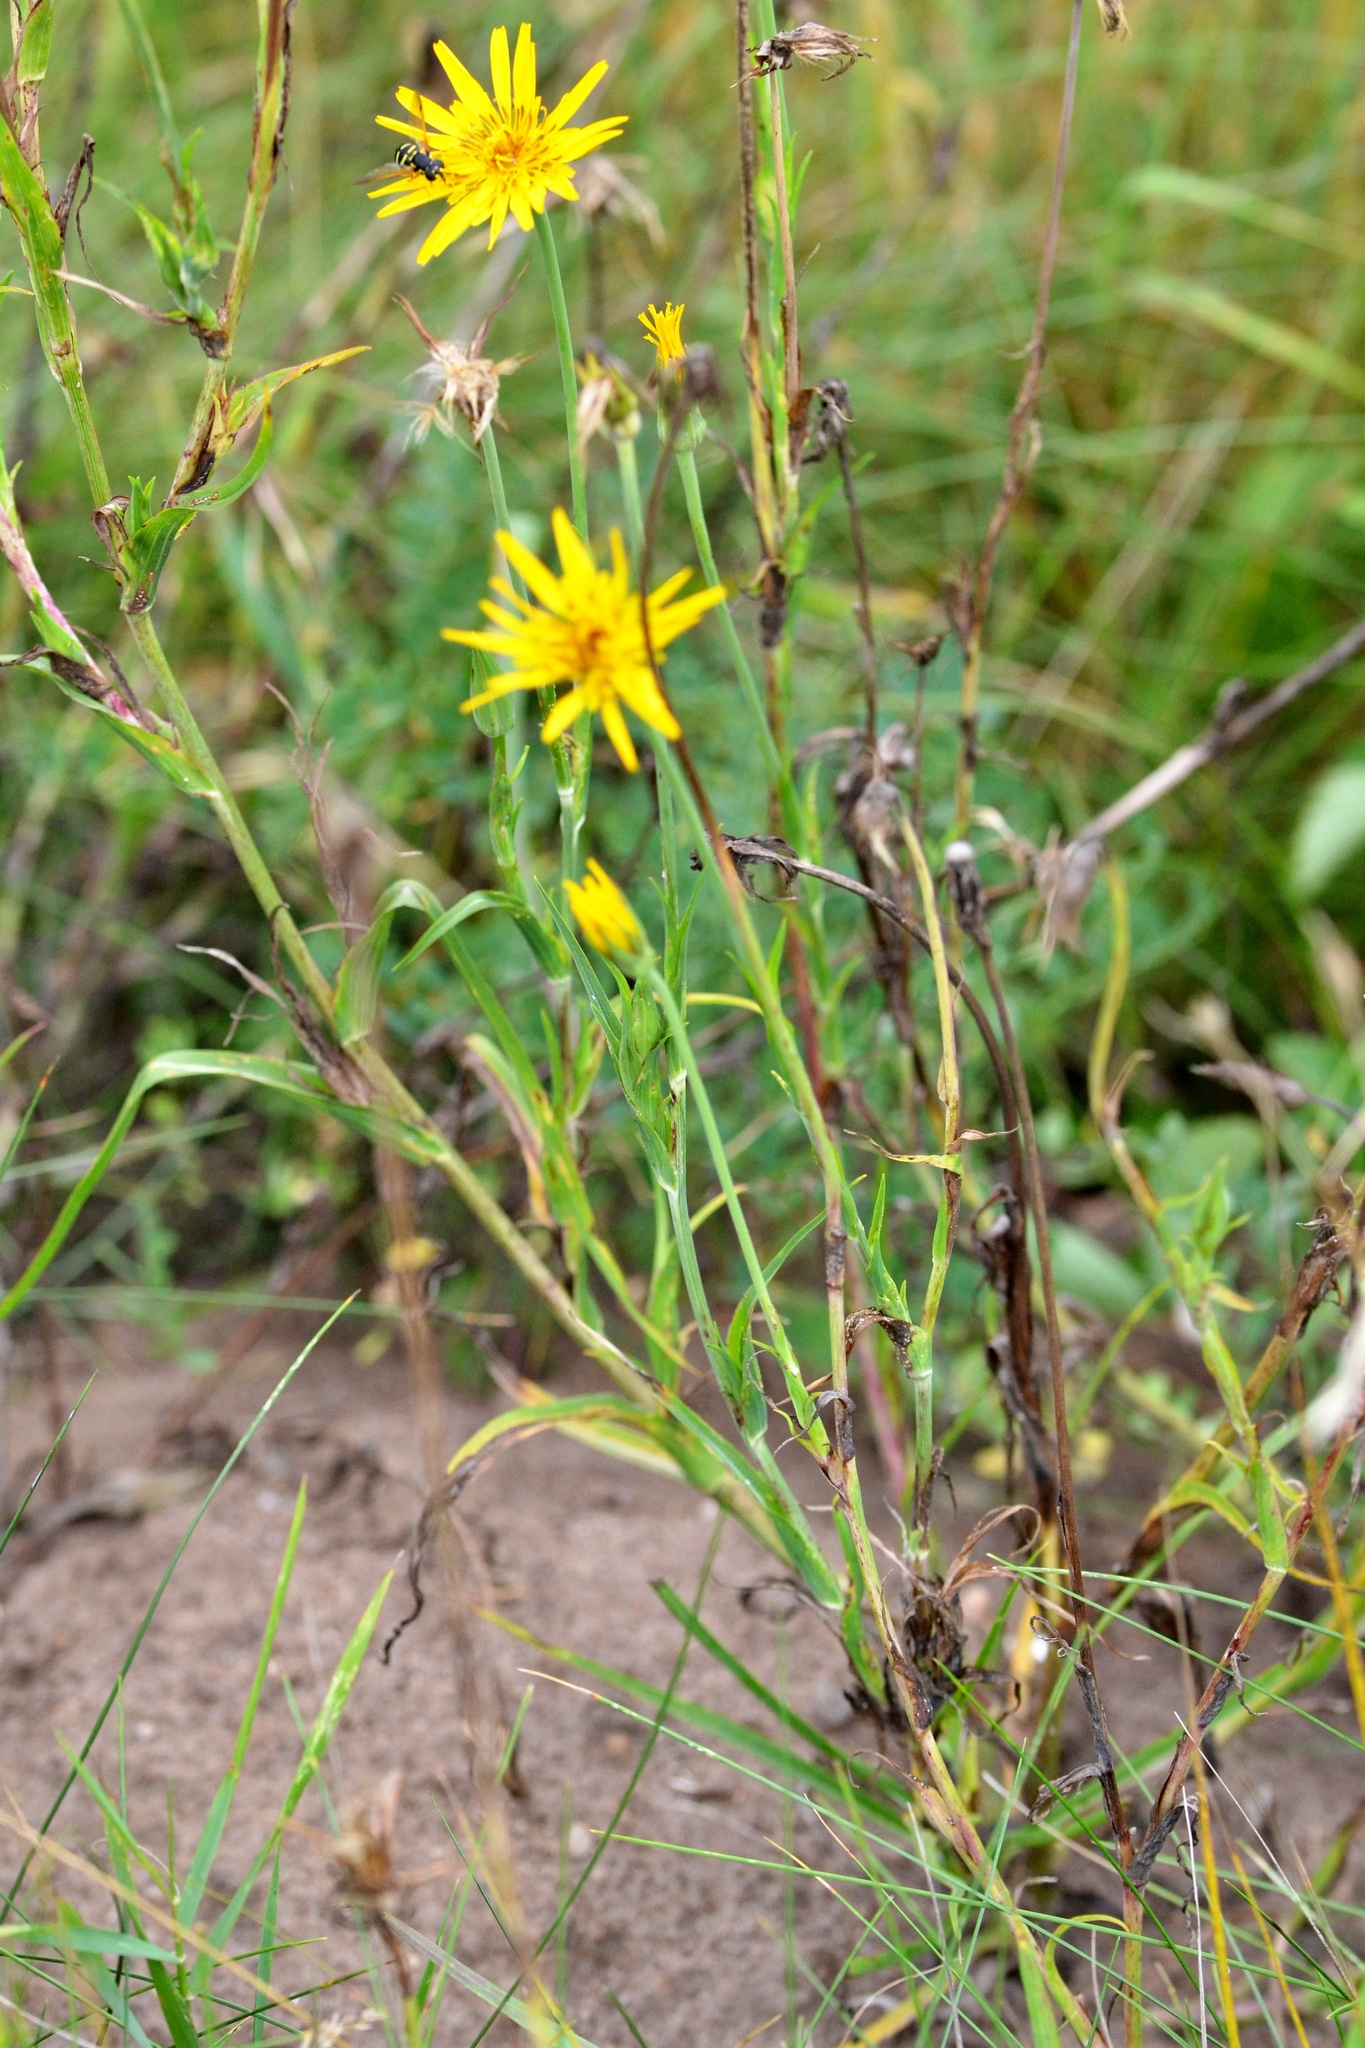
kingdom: Plantae
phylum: Tracheophyta
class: Magnoliopsida
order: Asterales
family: Asteraceae
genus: Tragopogon
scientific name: Tragopogon orientalis
